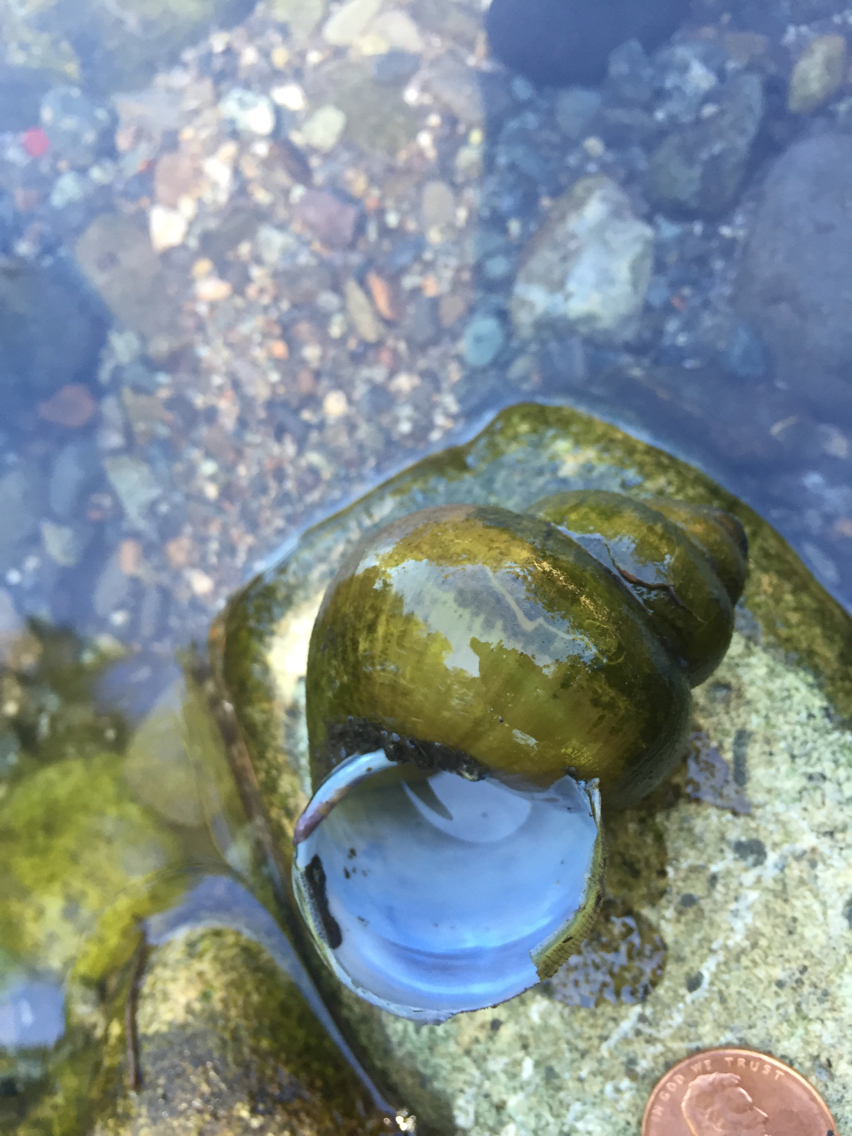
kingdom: Animalia
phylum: Mollusca
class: Gastropoda
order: Architaenioglossa
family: Viviparidae
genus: Cipangopaludina
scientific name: Cipangopaludina chinensis
